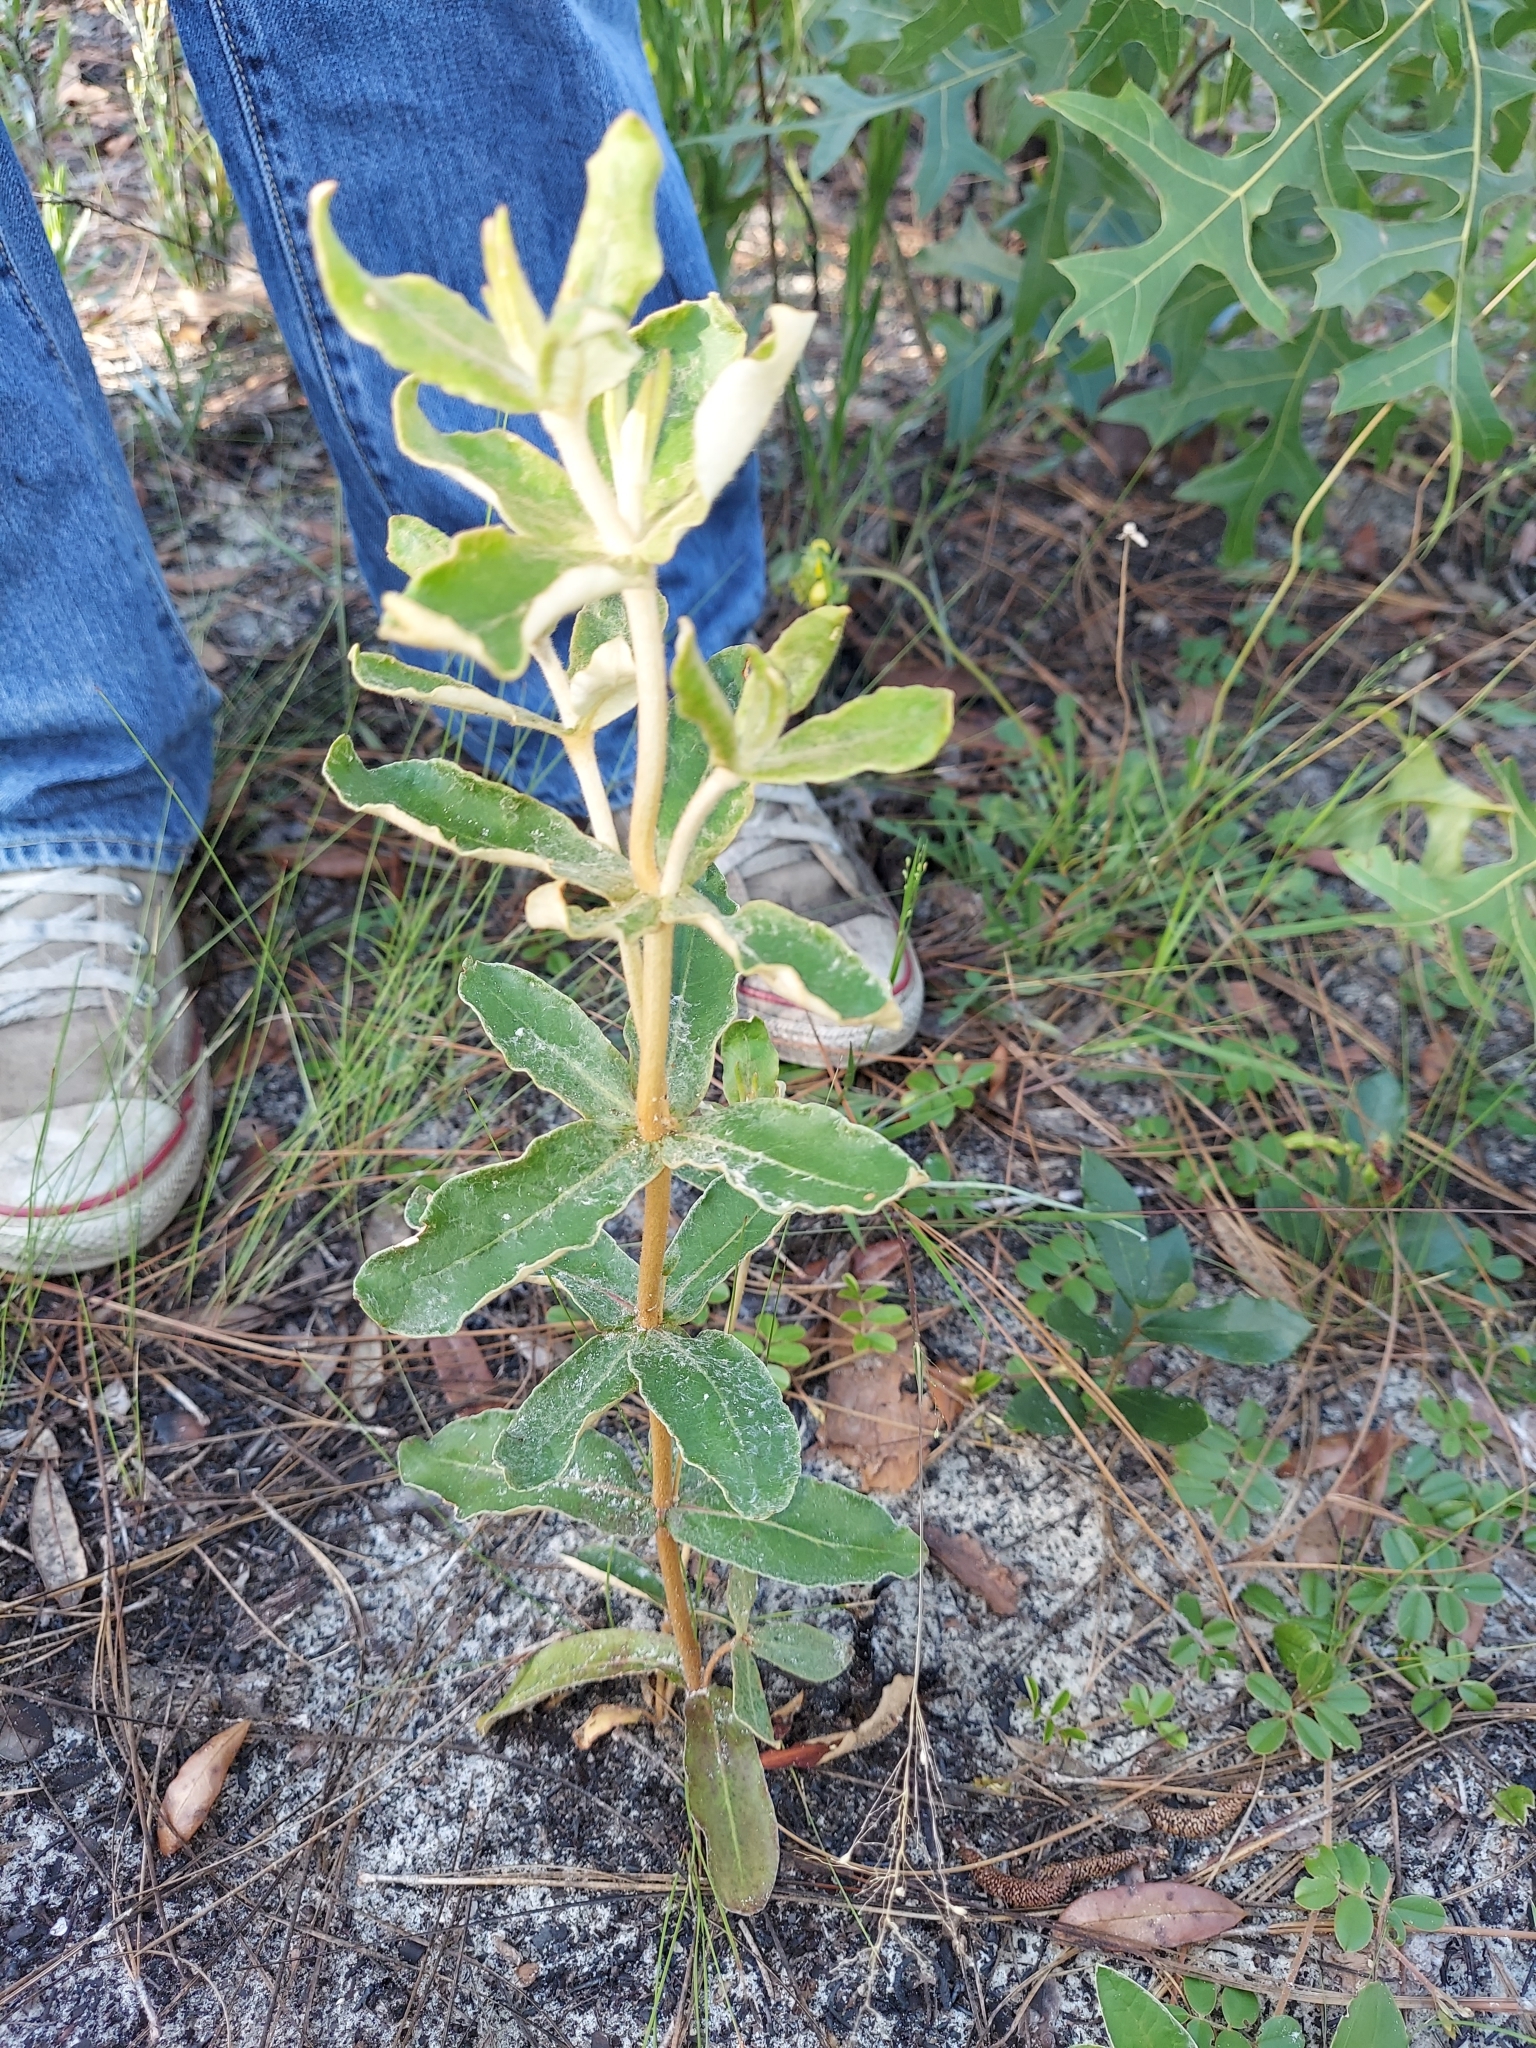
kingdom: Plantae
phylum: Tracheophyta
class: Magnoliopsida
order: Caryophyllales
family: Polygonaceae
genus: Eriogonum
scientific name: Eriogonum tomentosum
